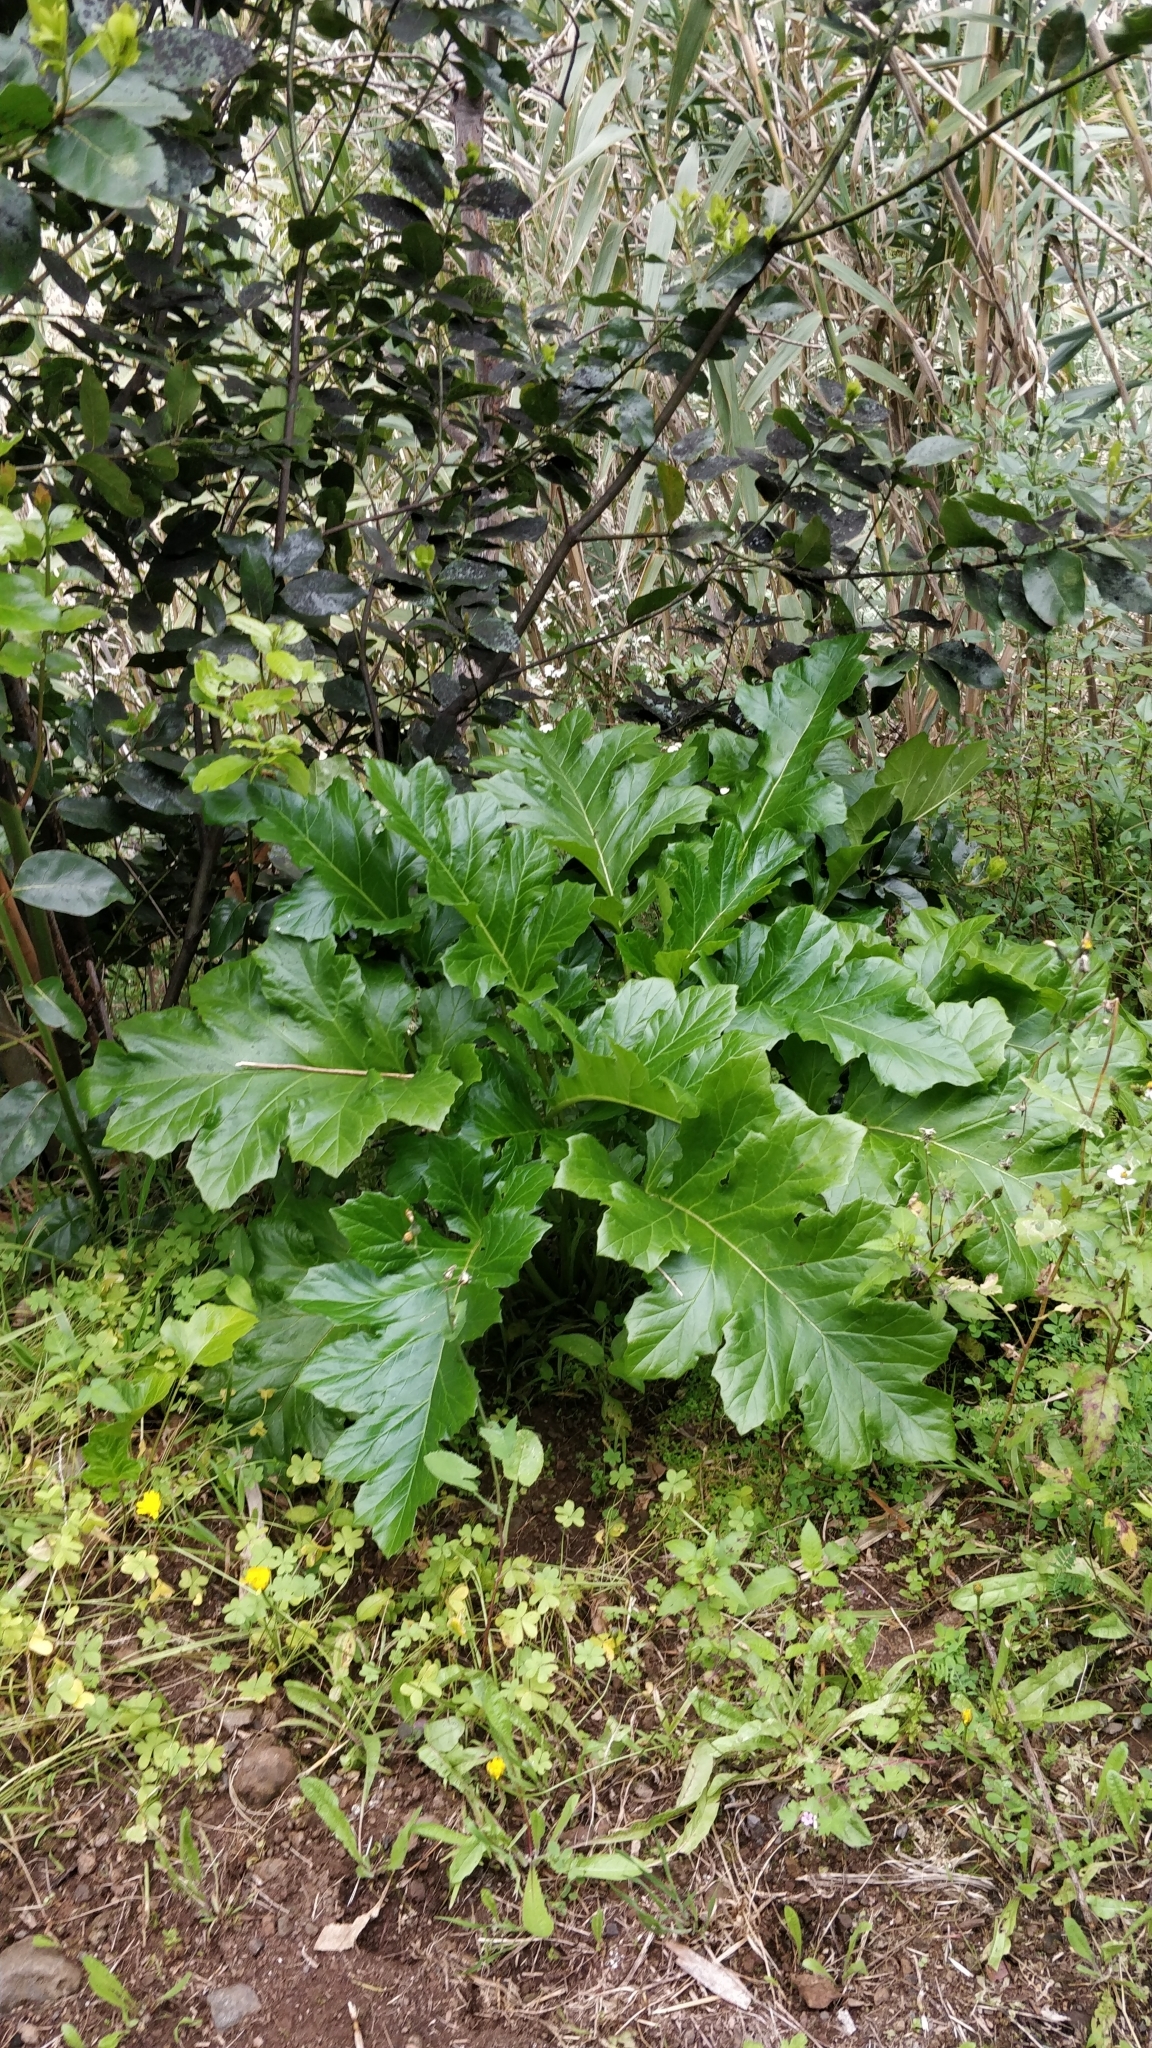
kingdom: Plantae
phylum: Tracheophyta
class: Magnoliopsida
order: Lamiales
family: Acanthaceae
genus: Acanthus
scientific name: Acanthus mollis
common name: Bear's-breech
